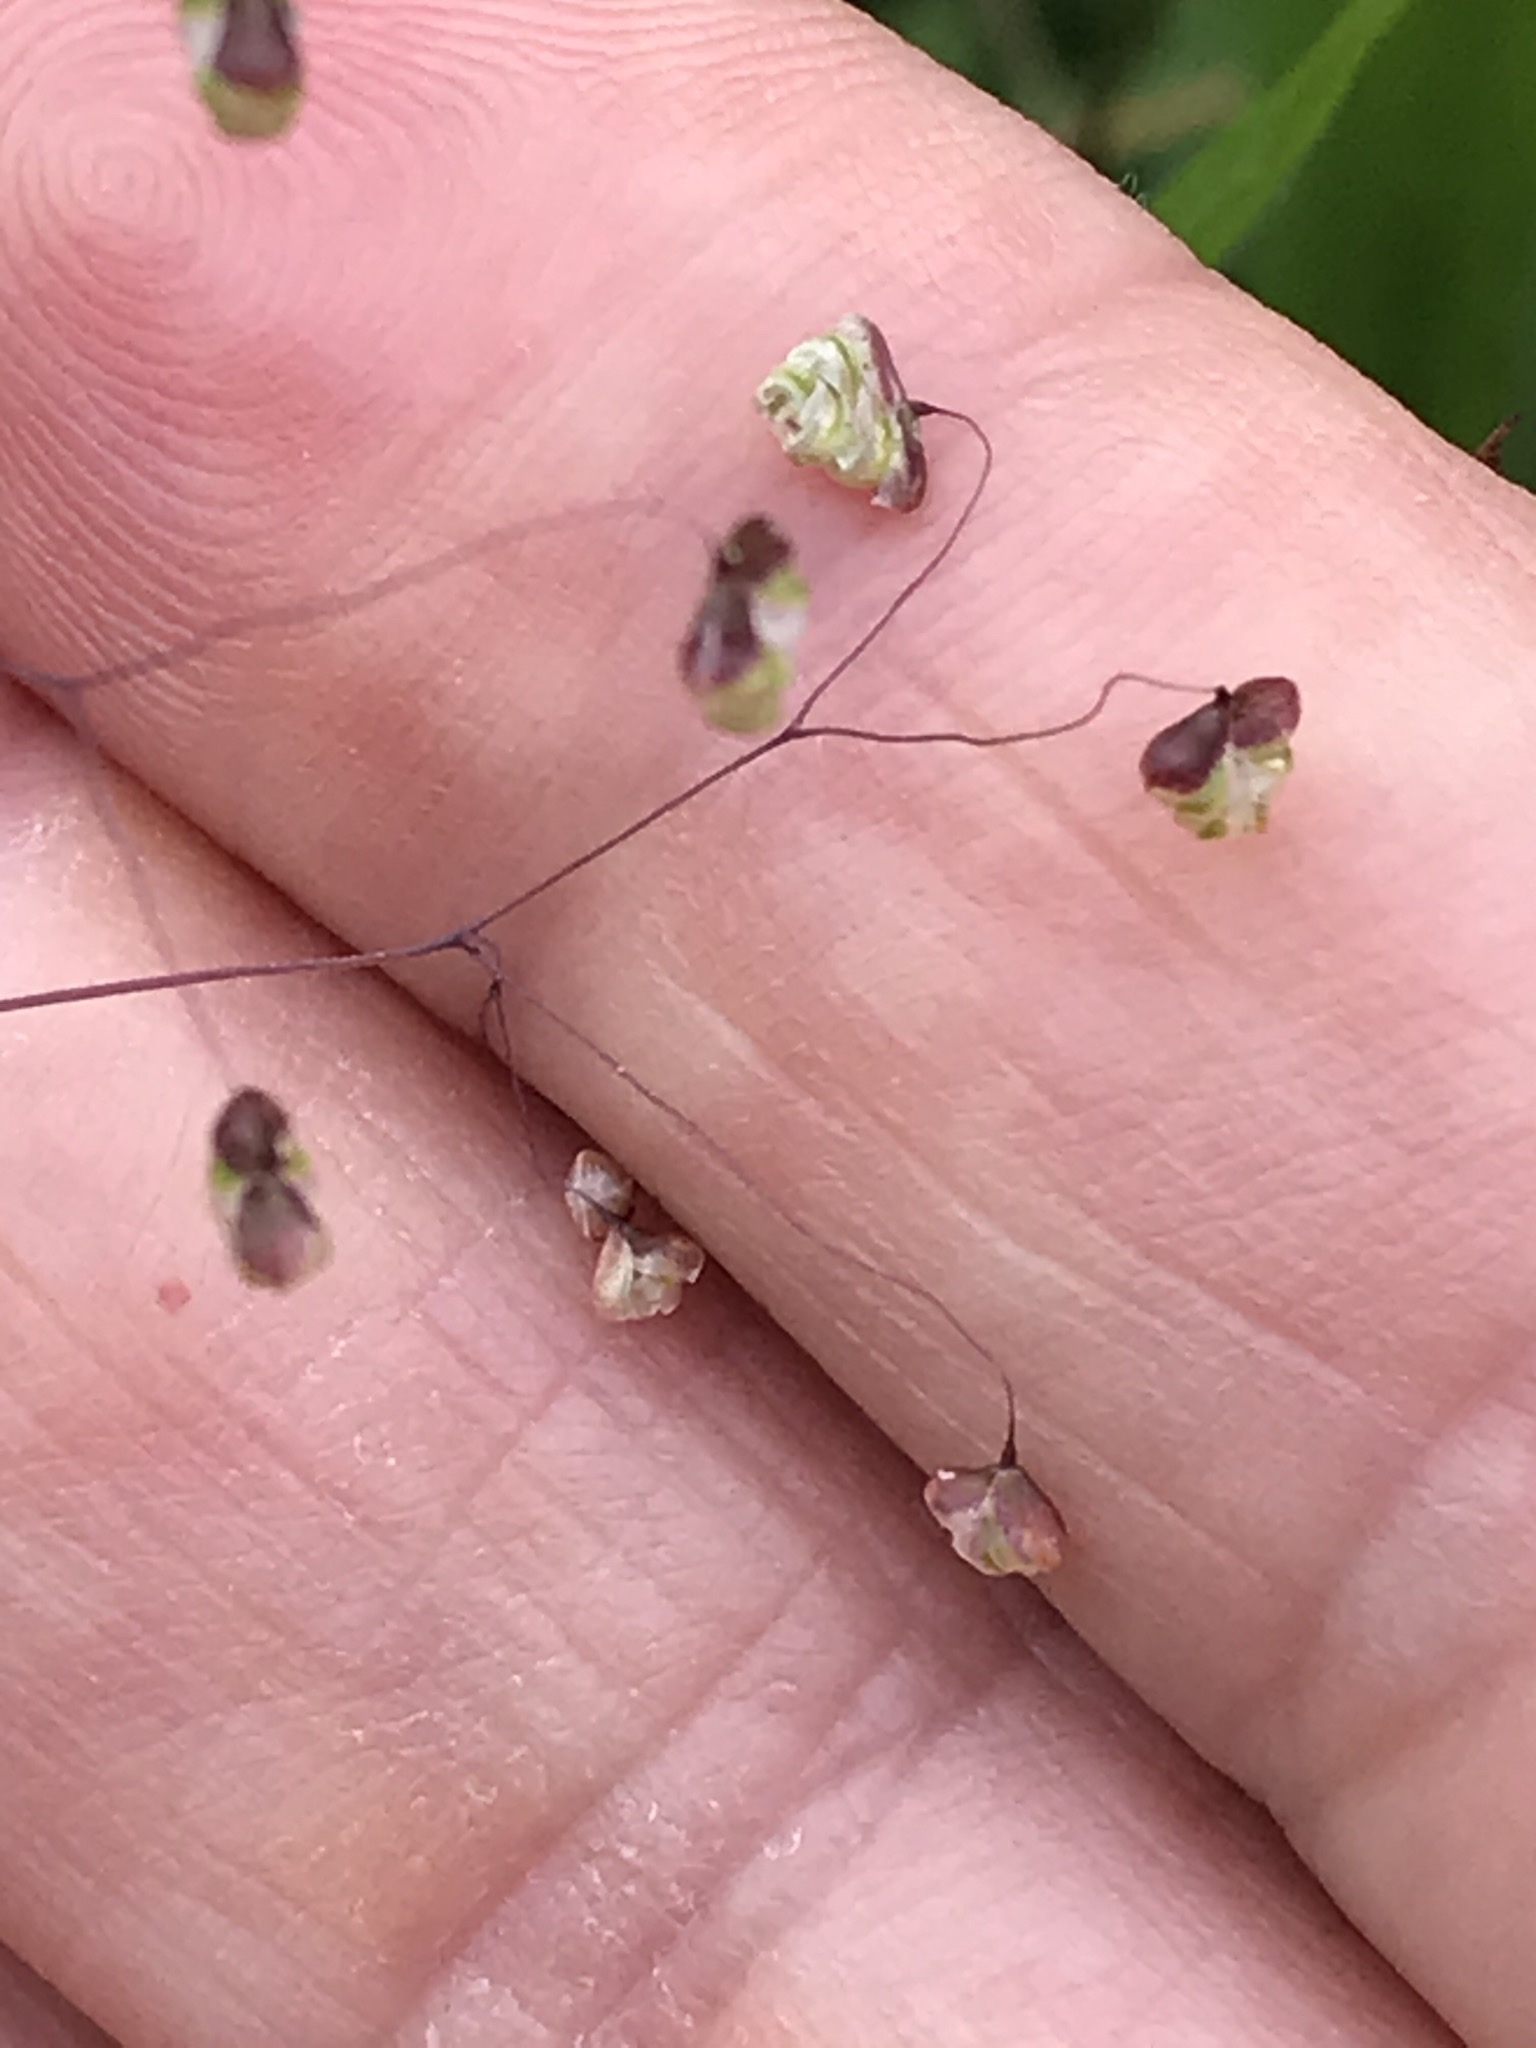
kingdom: Plantae
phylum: Tracheophyta
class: Liliopsida
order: Poales
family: Poaceae
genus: Briza
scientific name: Briza minor
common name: Lesser quaking-grass
